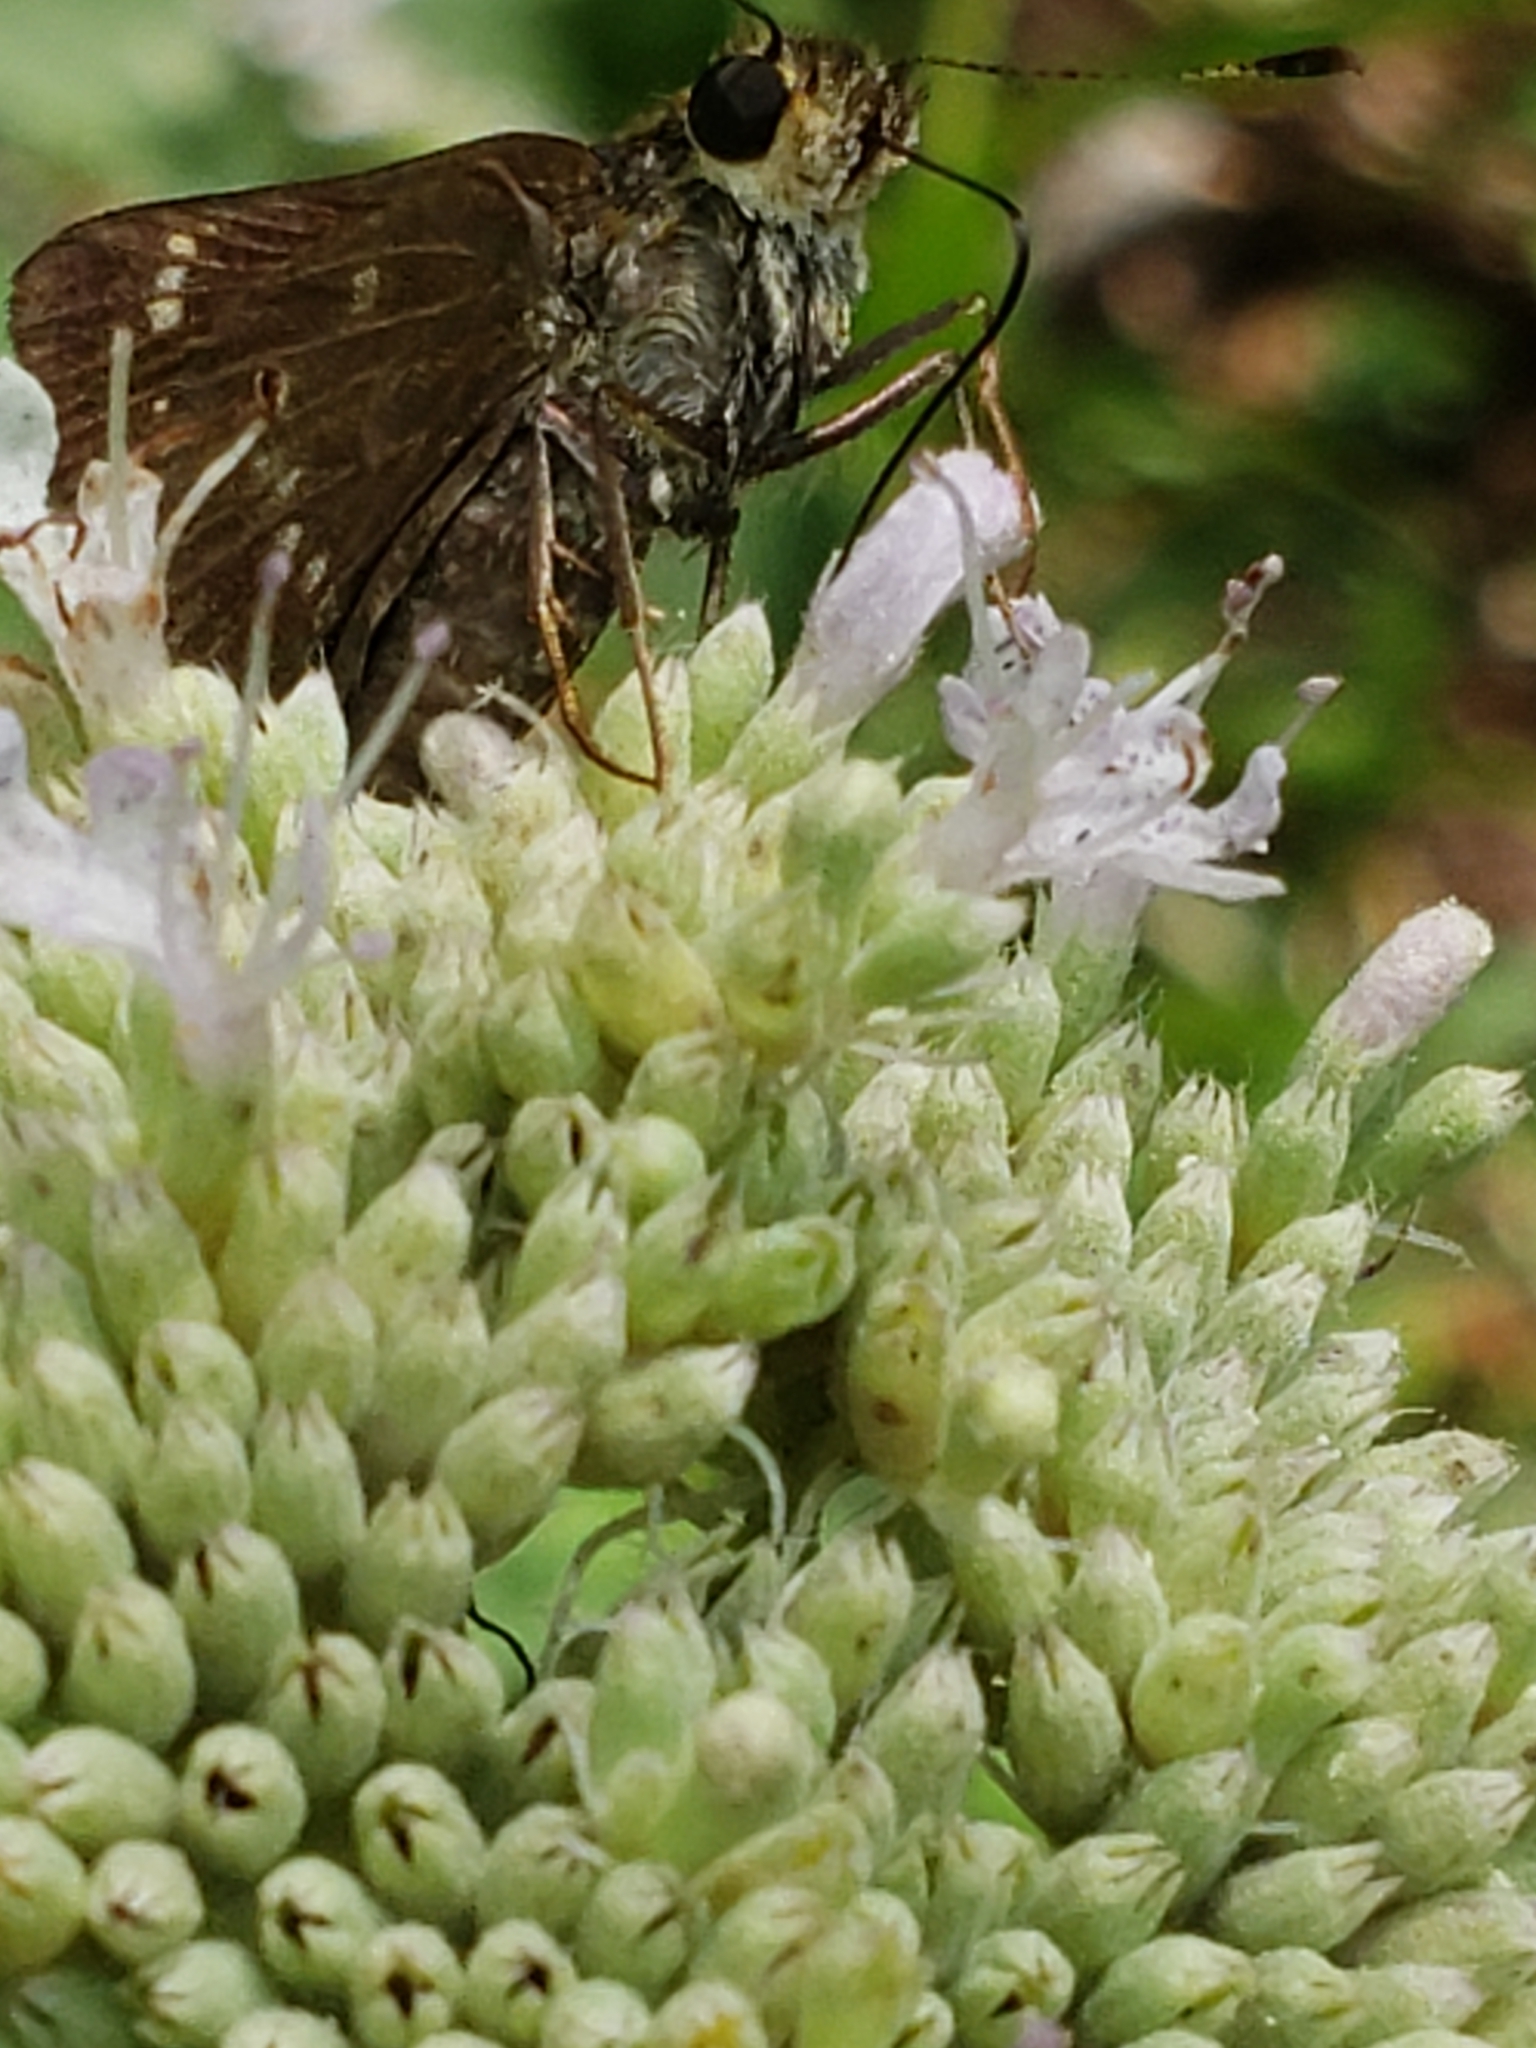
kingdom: Animalia
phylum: Arthropoda
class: Insecta
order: Lepidoptera
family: Hesperiidae
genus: Vernia
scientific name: Vernia verna
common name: Little glassywing
